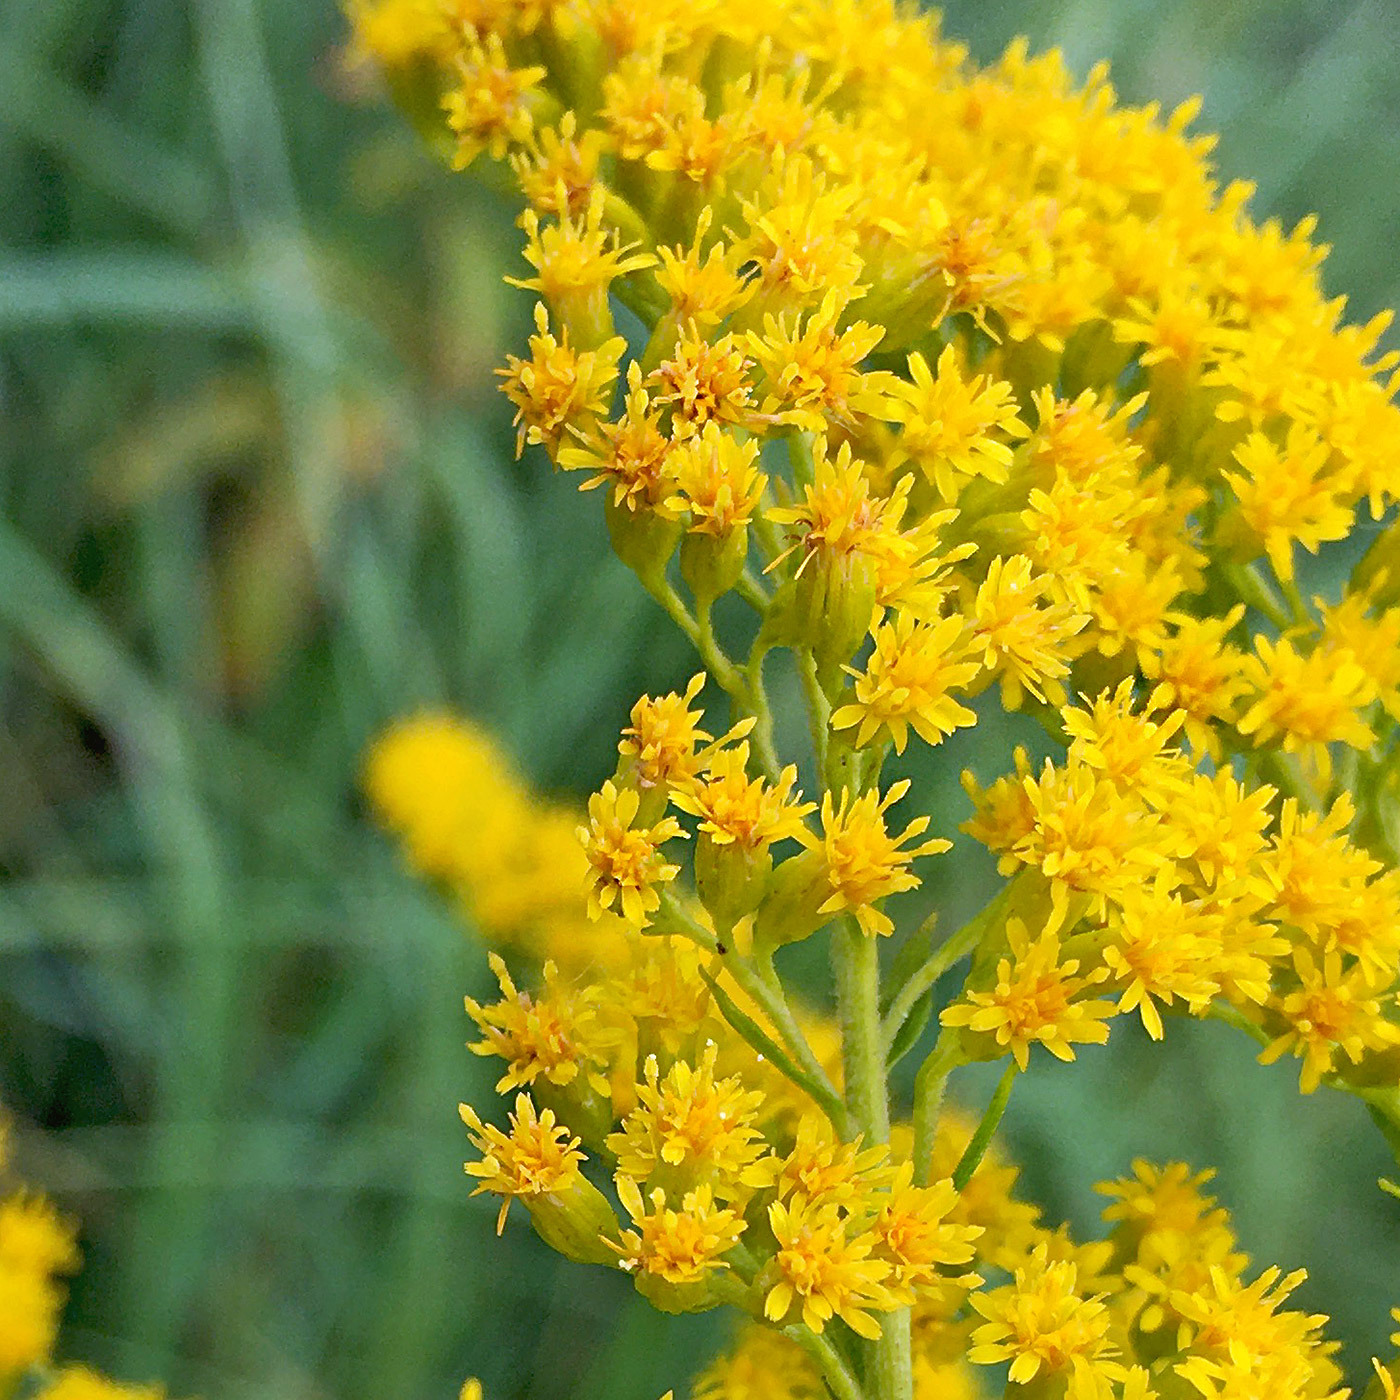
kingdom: Plantae
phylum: Tracheophyta
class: Magnoliopsida
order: Asterales
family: Asteraceae
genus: Solidago
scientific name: Solidago gigantea
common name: Giant goldenrod
